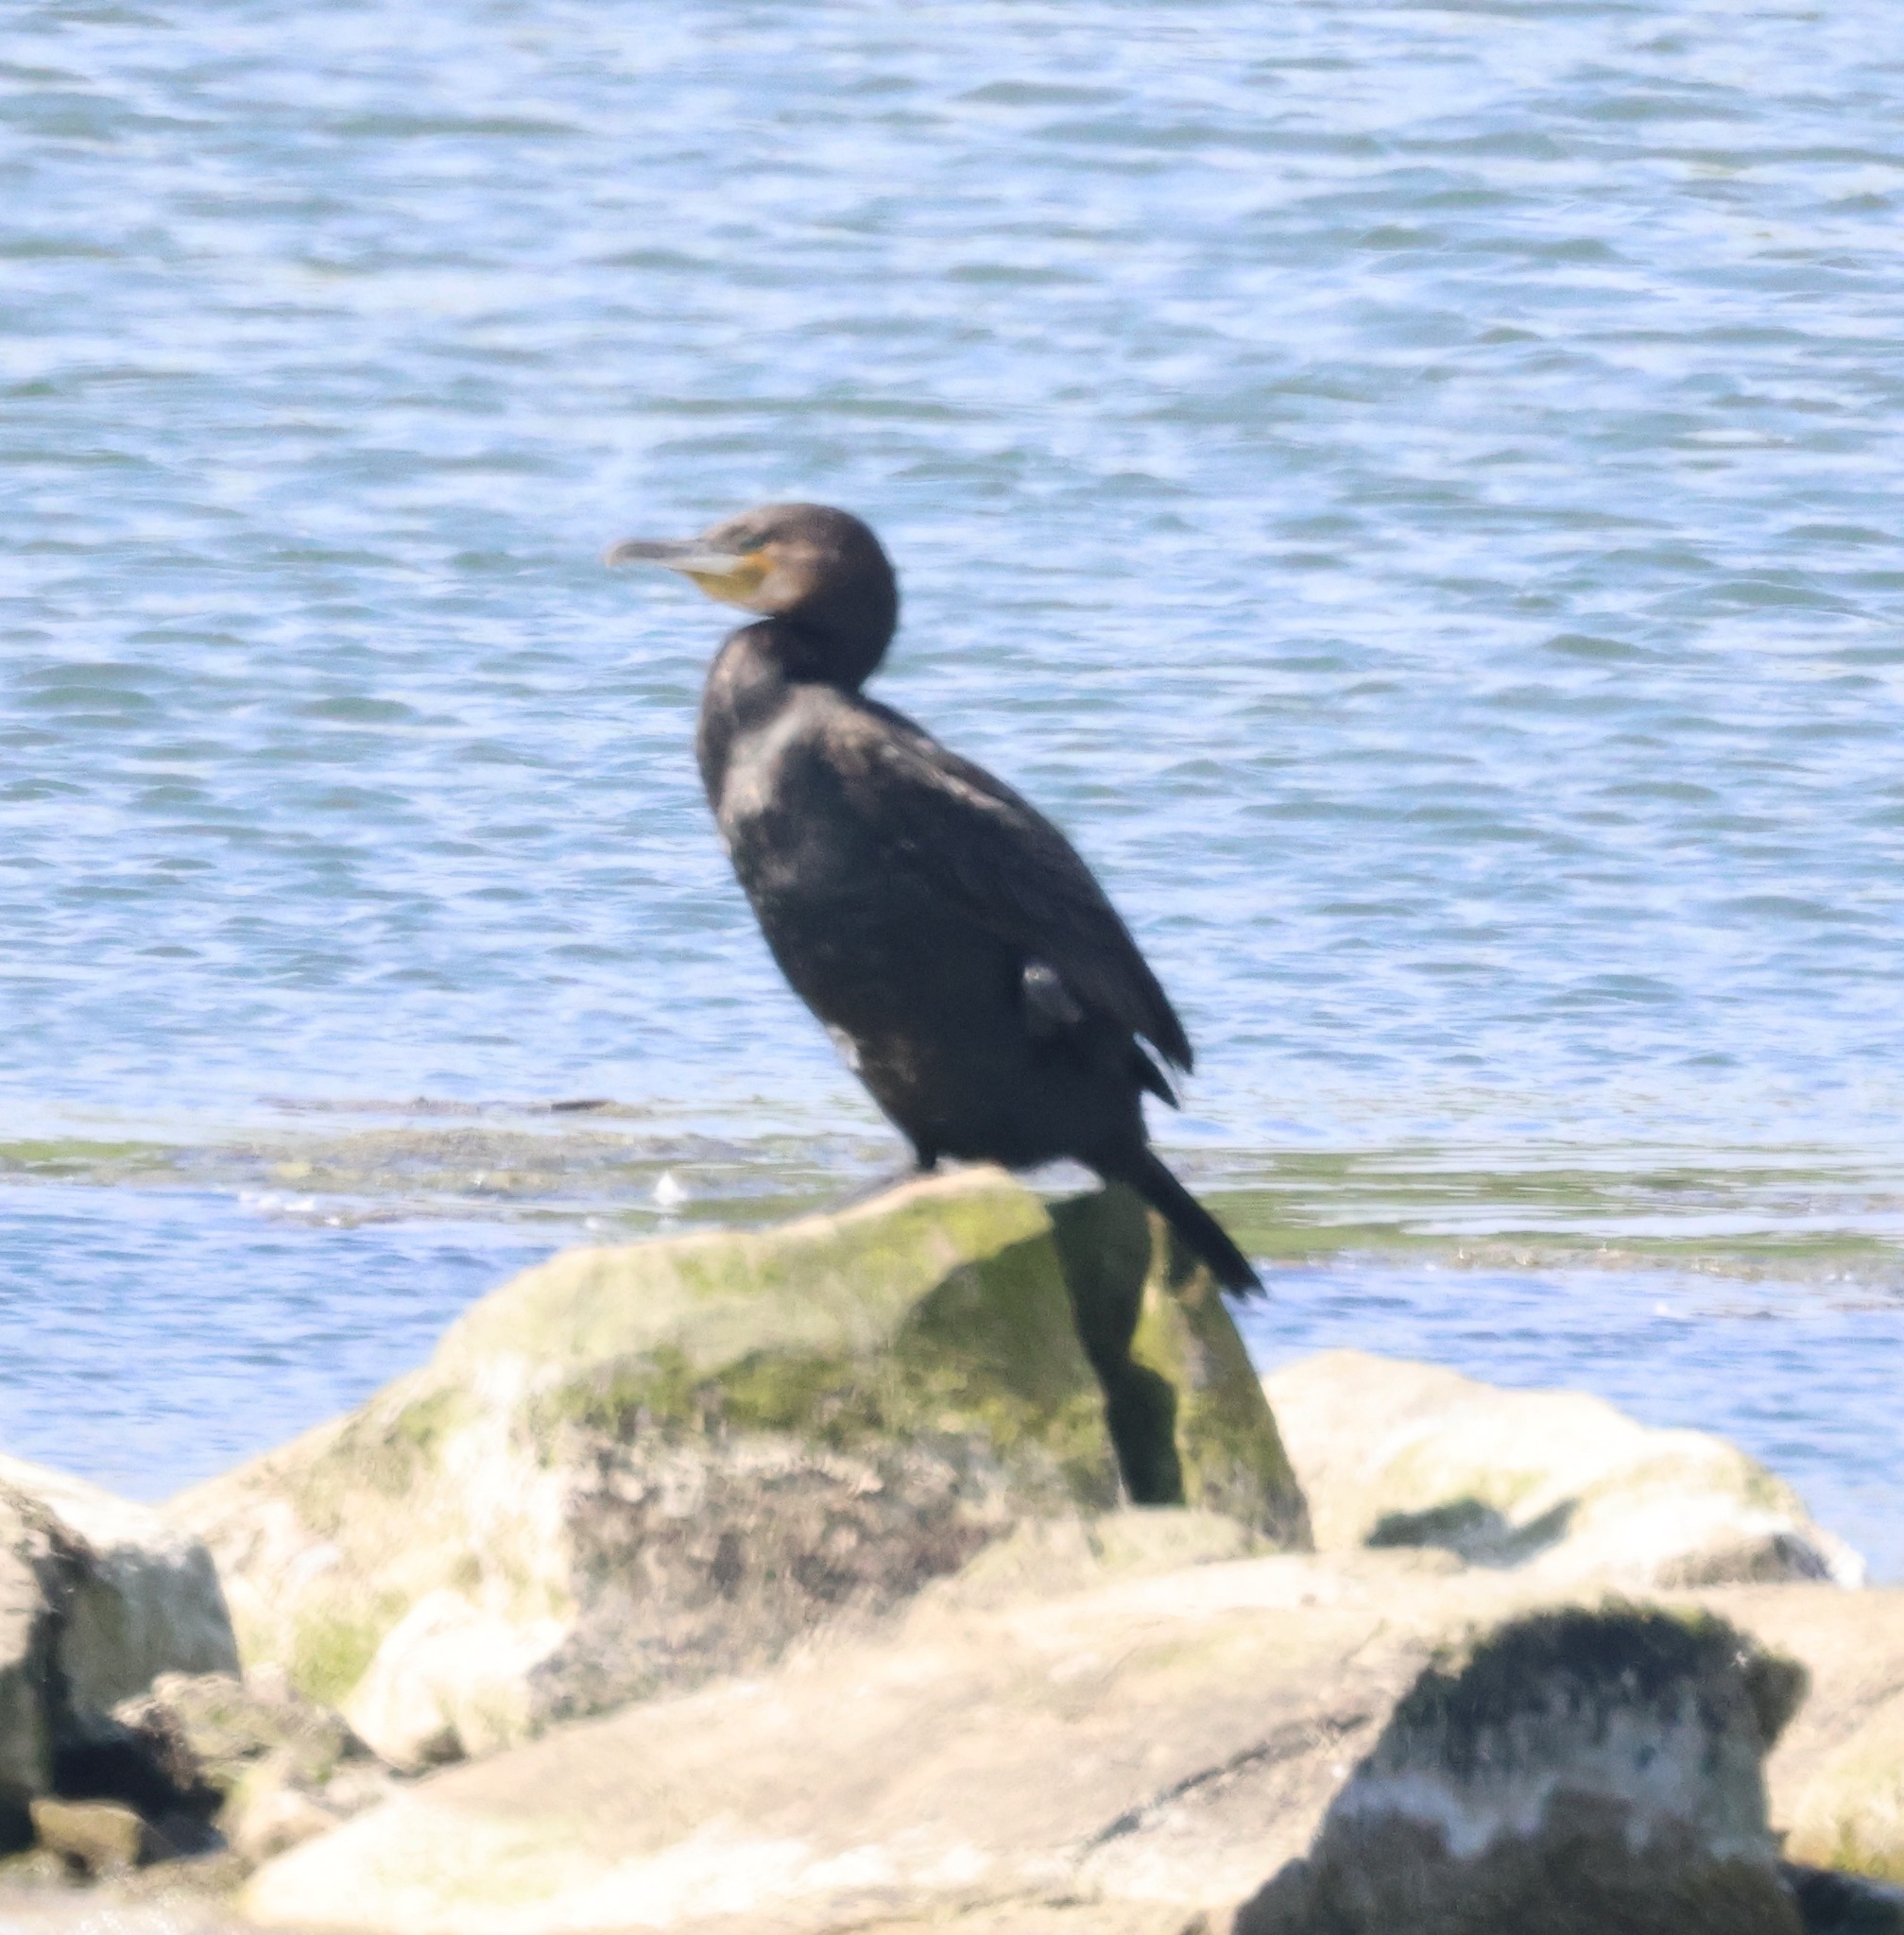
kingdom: Animalia
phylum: Chordata
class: Aves
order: Suliformes
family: Phalacrocoracidae
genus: Phalacrocorax
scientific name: Phalacrocorax carbo
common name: Great cormorant
